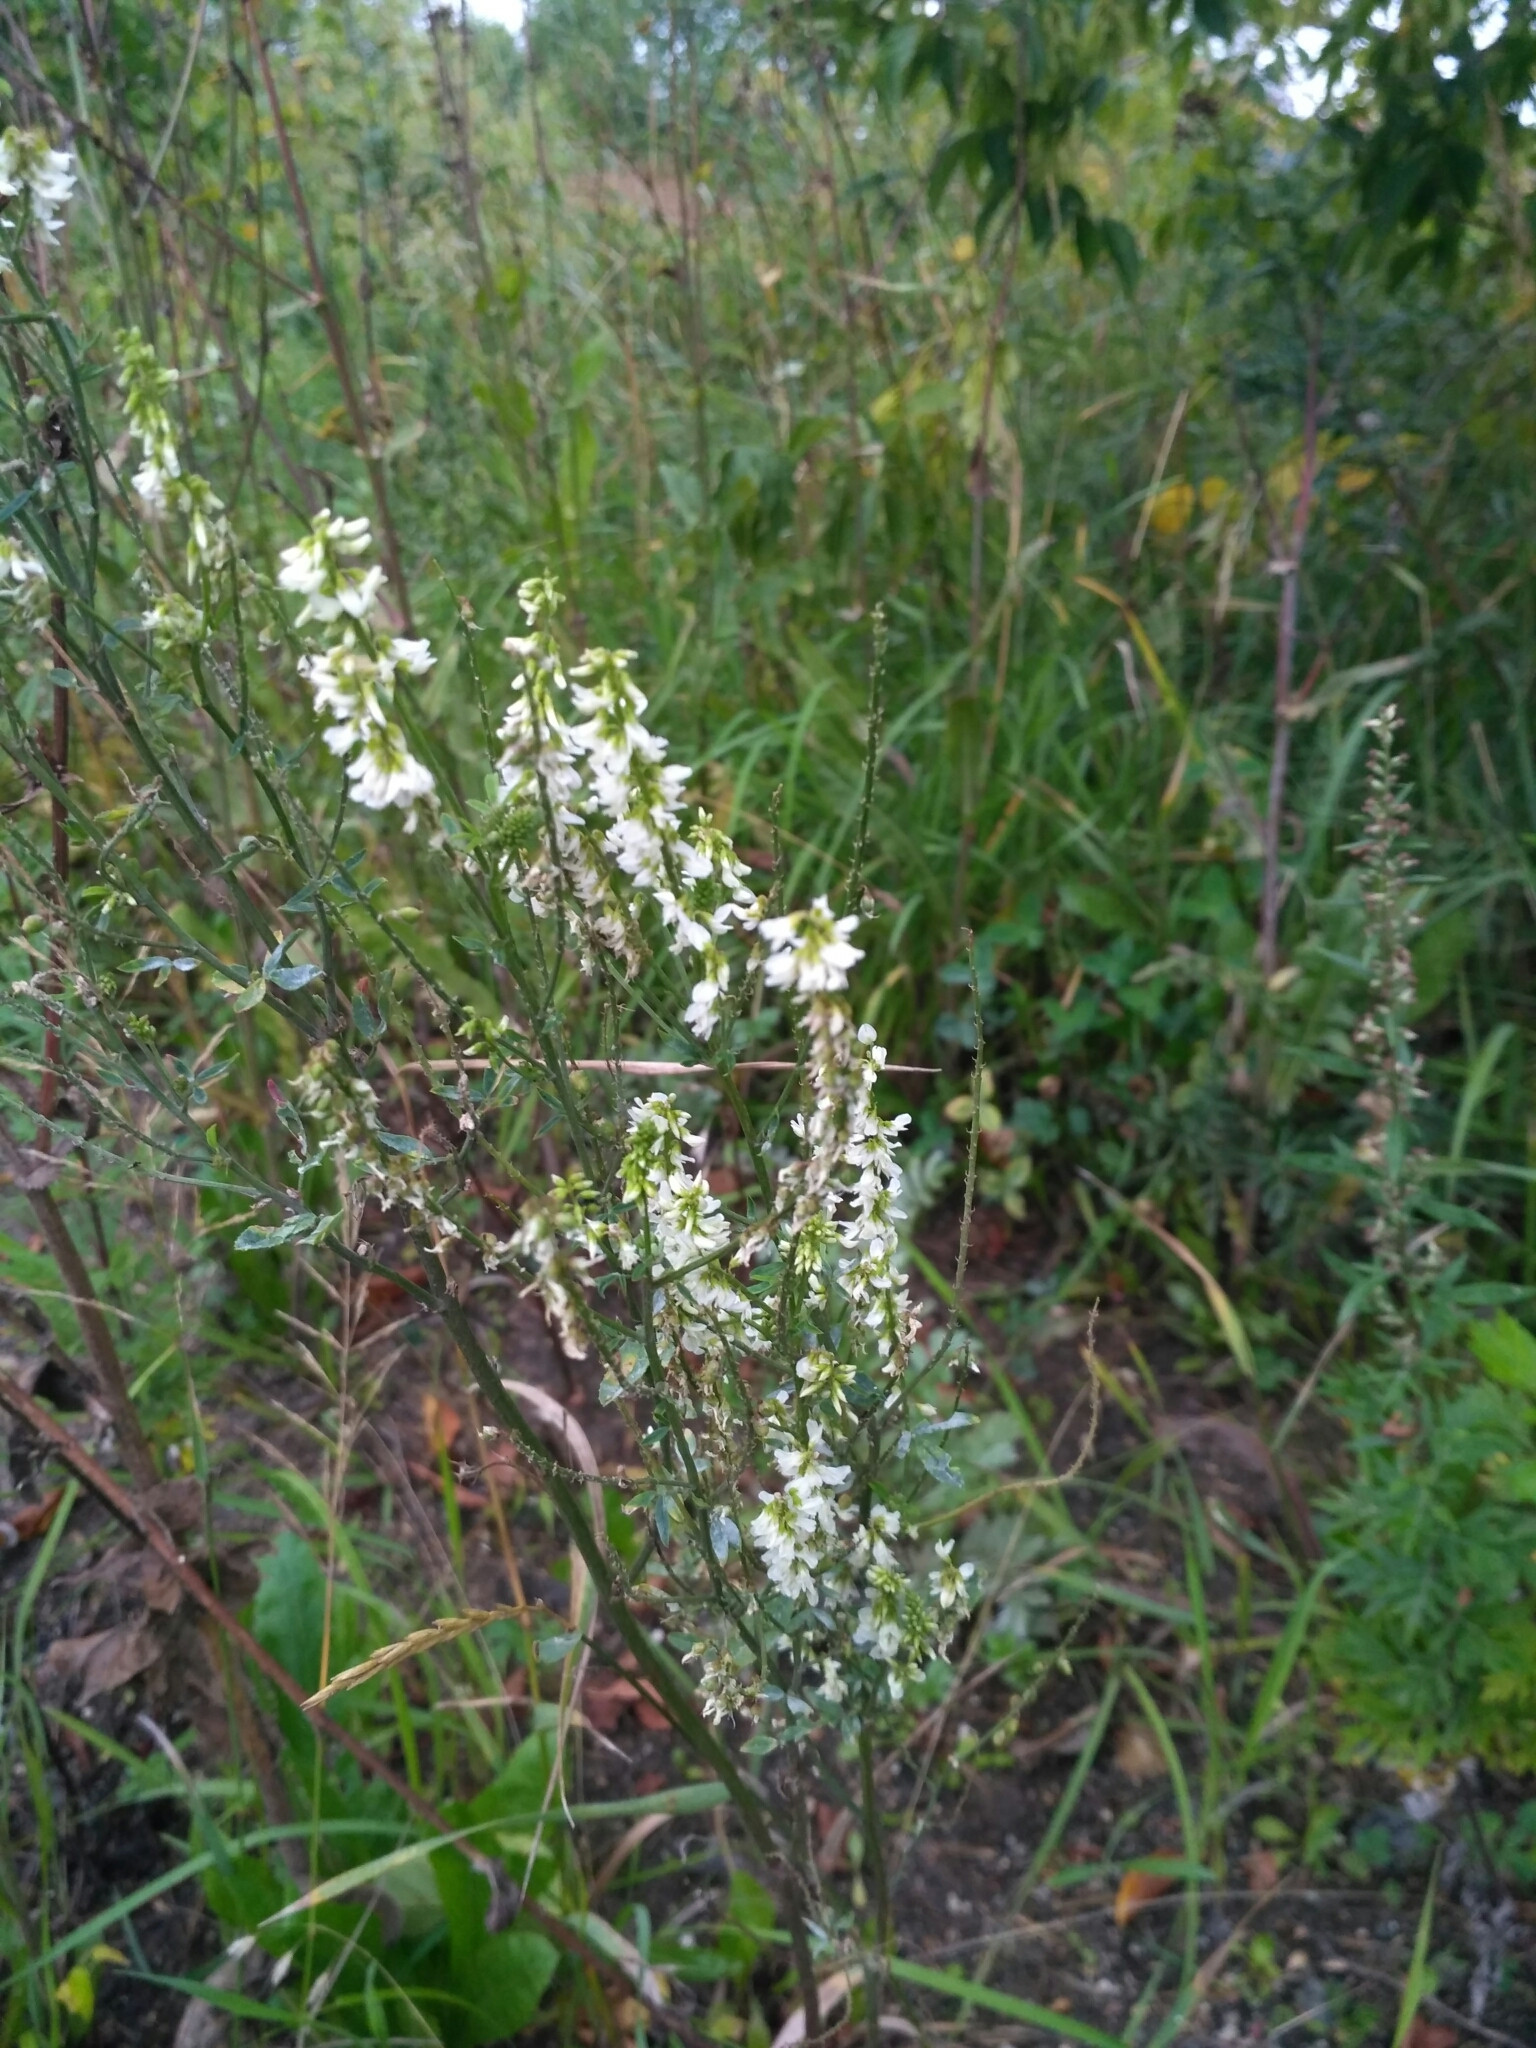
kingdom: Plantae
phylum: Tracheophyta
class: Magnoliopsida
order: Fabales
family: Fabaceae
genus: Melilotus
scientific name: Melilotus albus
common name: White melilot
